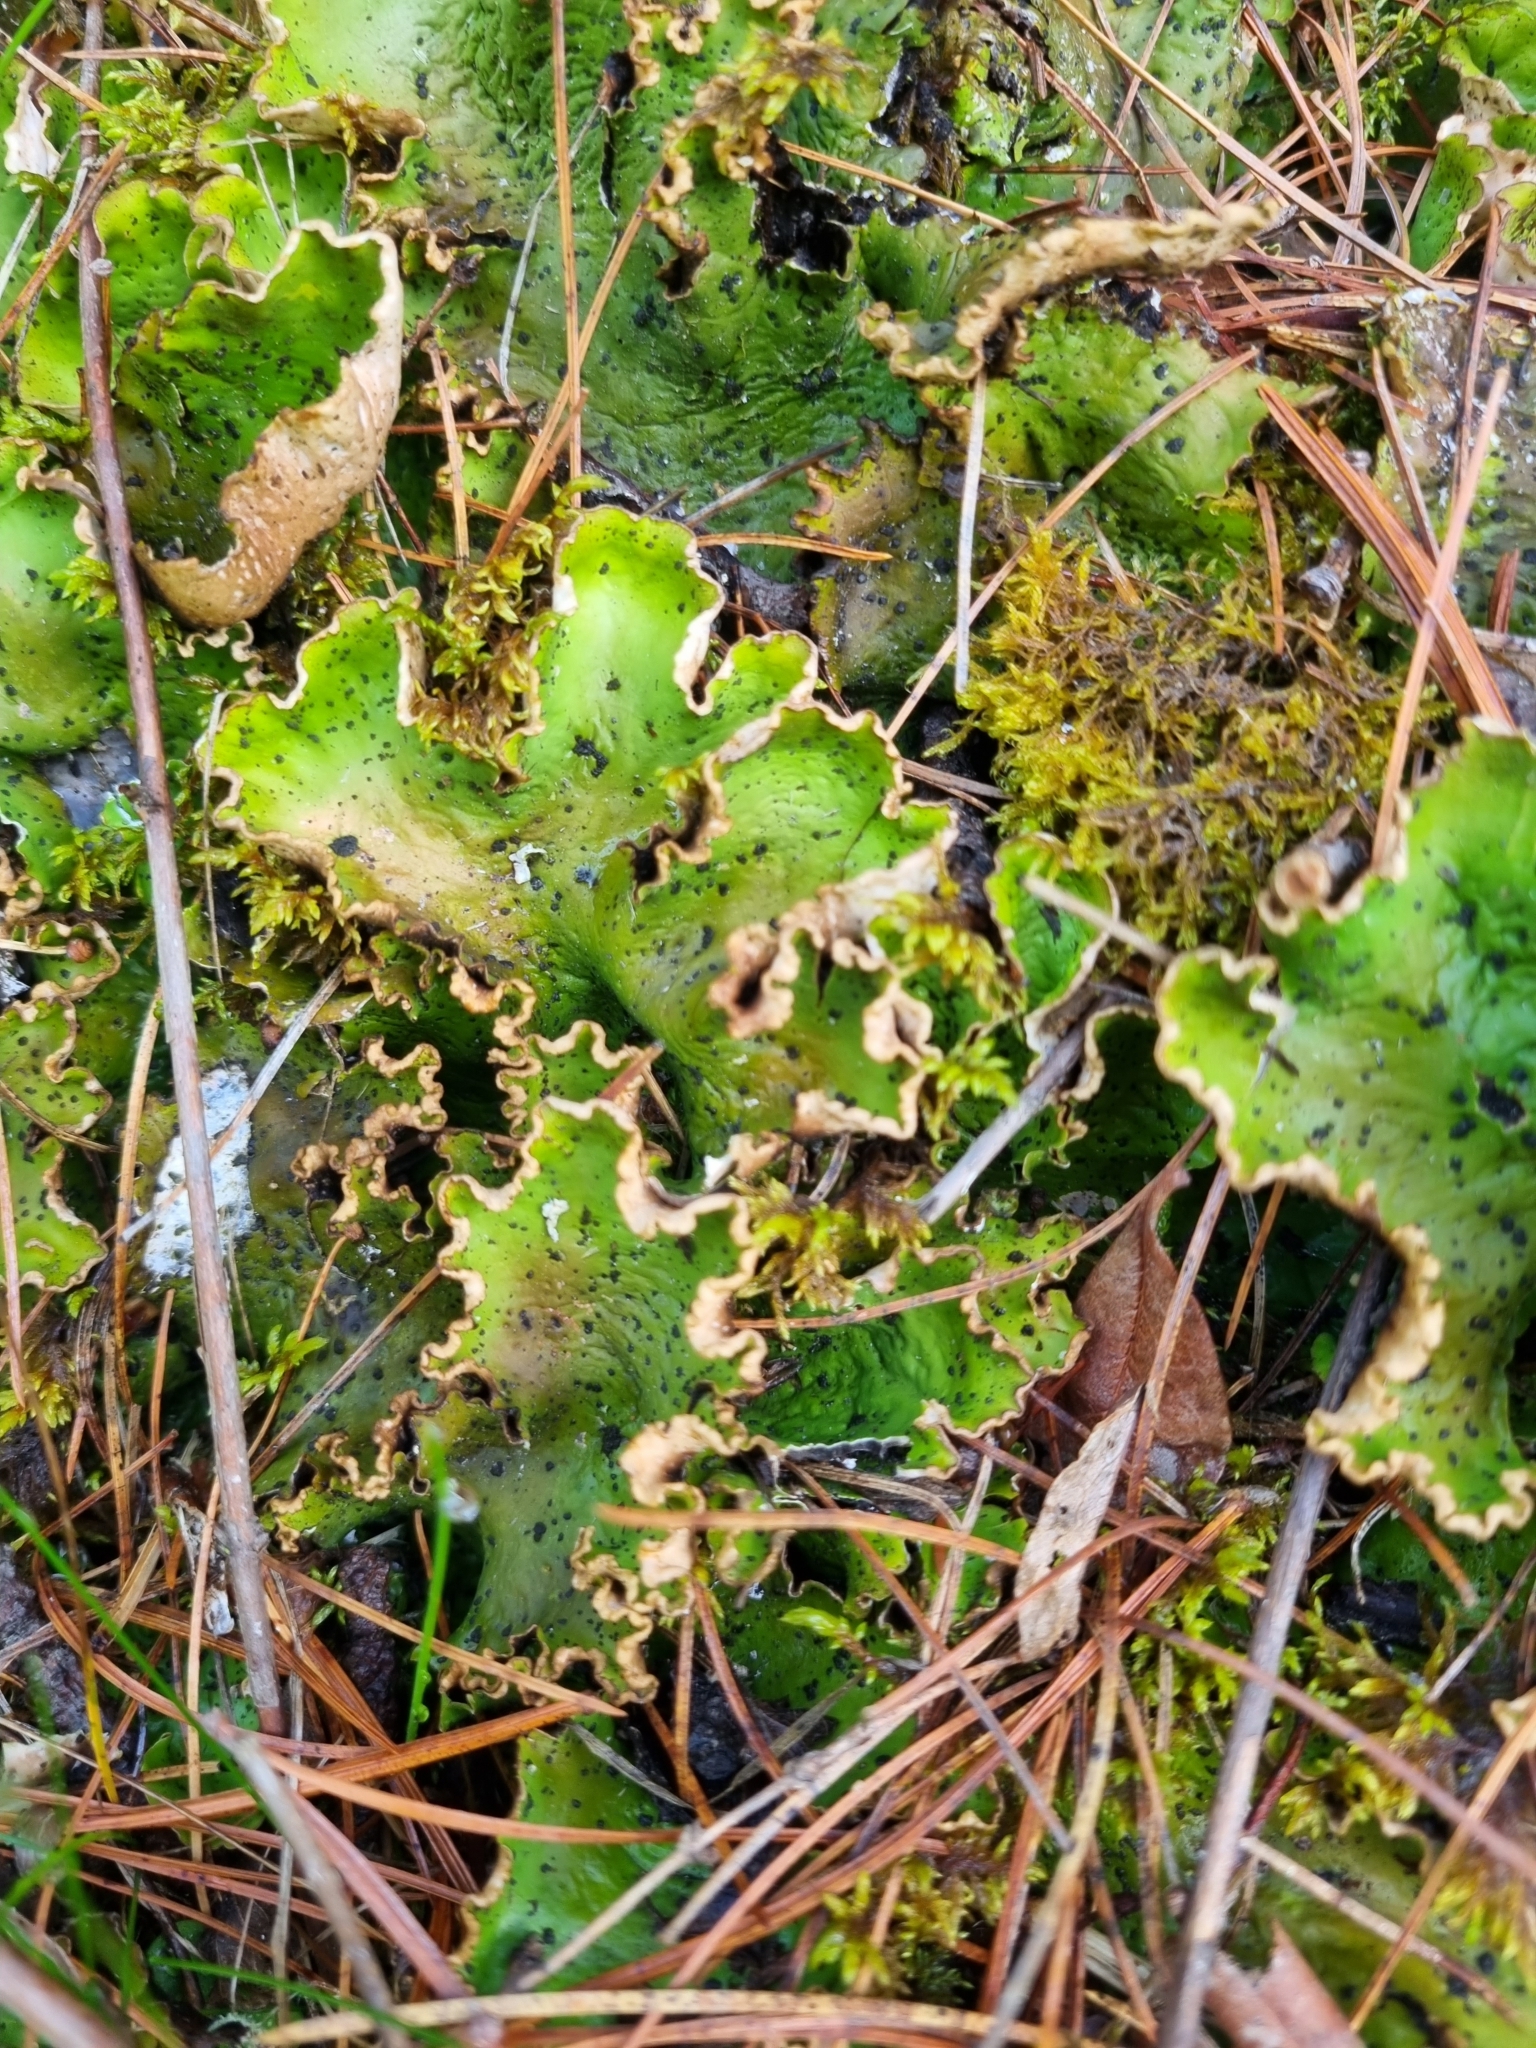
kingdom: Fungi
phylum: Ascomycota
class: Lecanoromycetes
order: Peltigerales
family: Peltigeraceae
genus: Peltigera
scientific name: Peltigera aphthosa
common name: Common freckle pelt lichen
